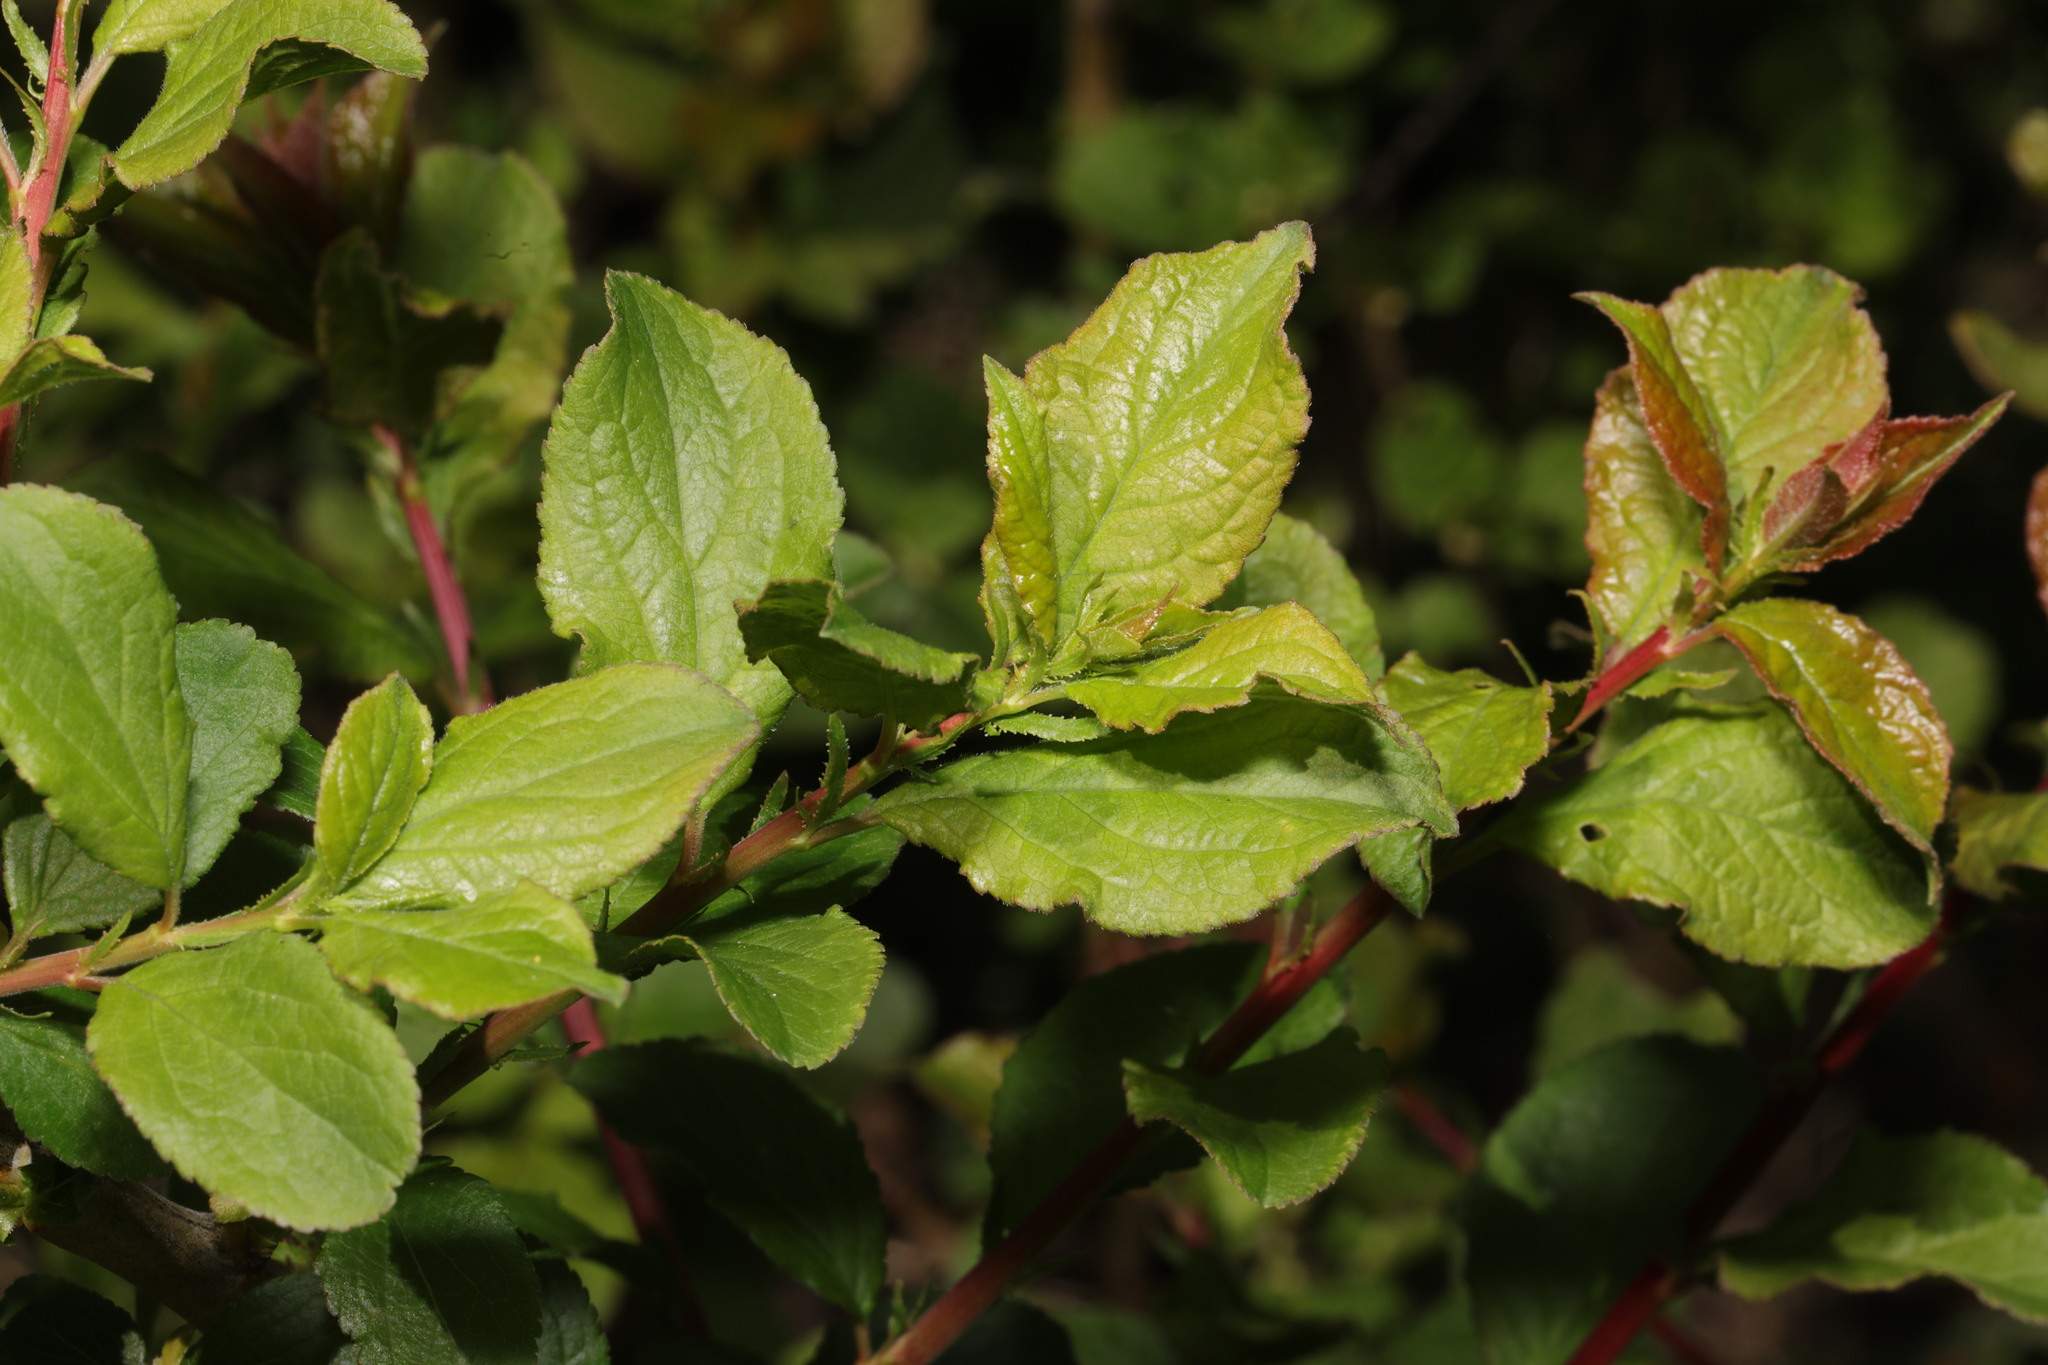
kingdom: Plantae
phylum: Tracheophyta
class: Magnoliopsida
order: Rosales
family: Rosaceae
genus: Prunus
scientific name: Prunus spinosa
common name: Blackthorn
